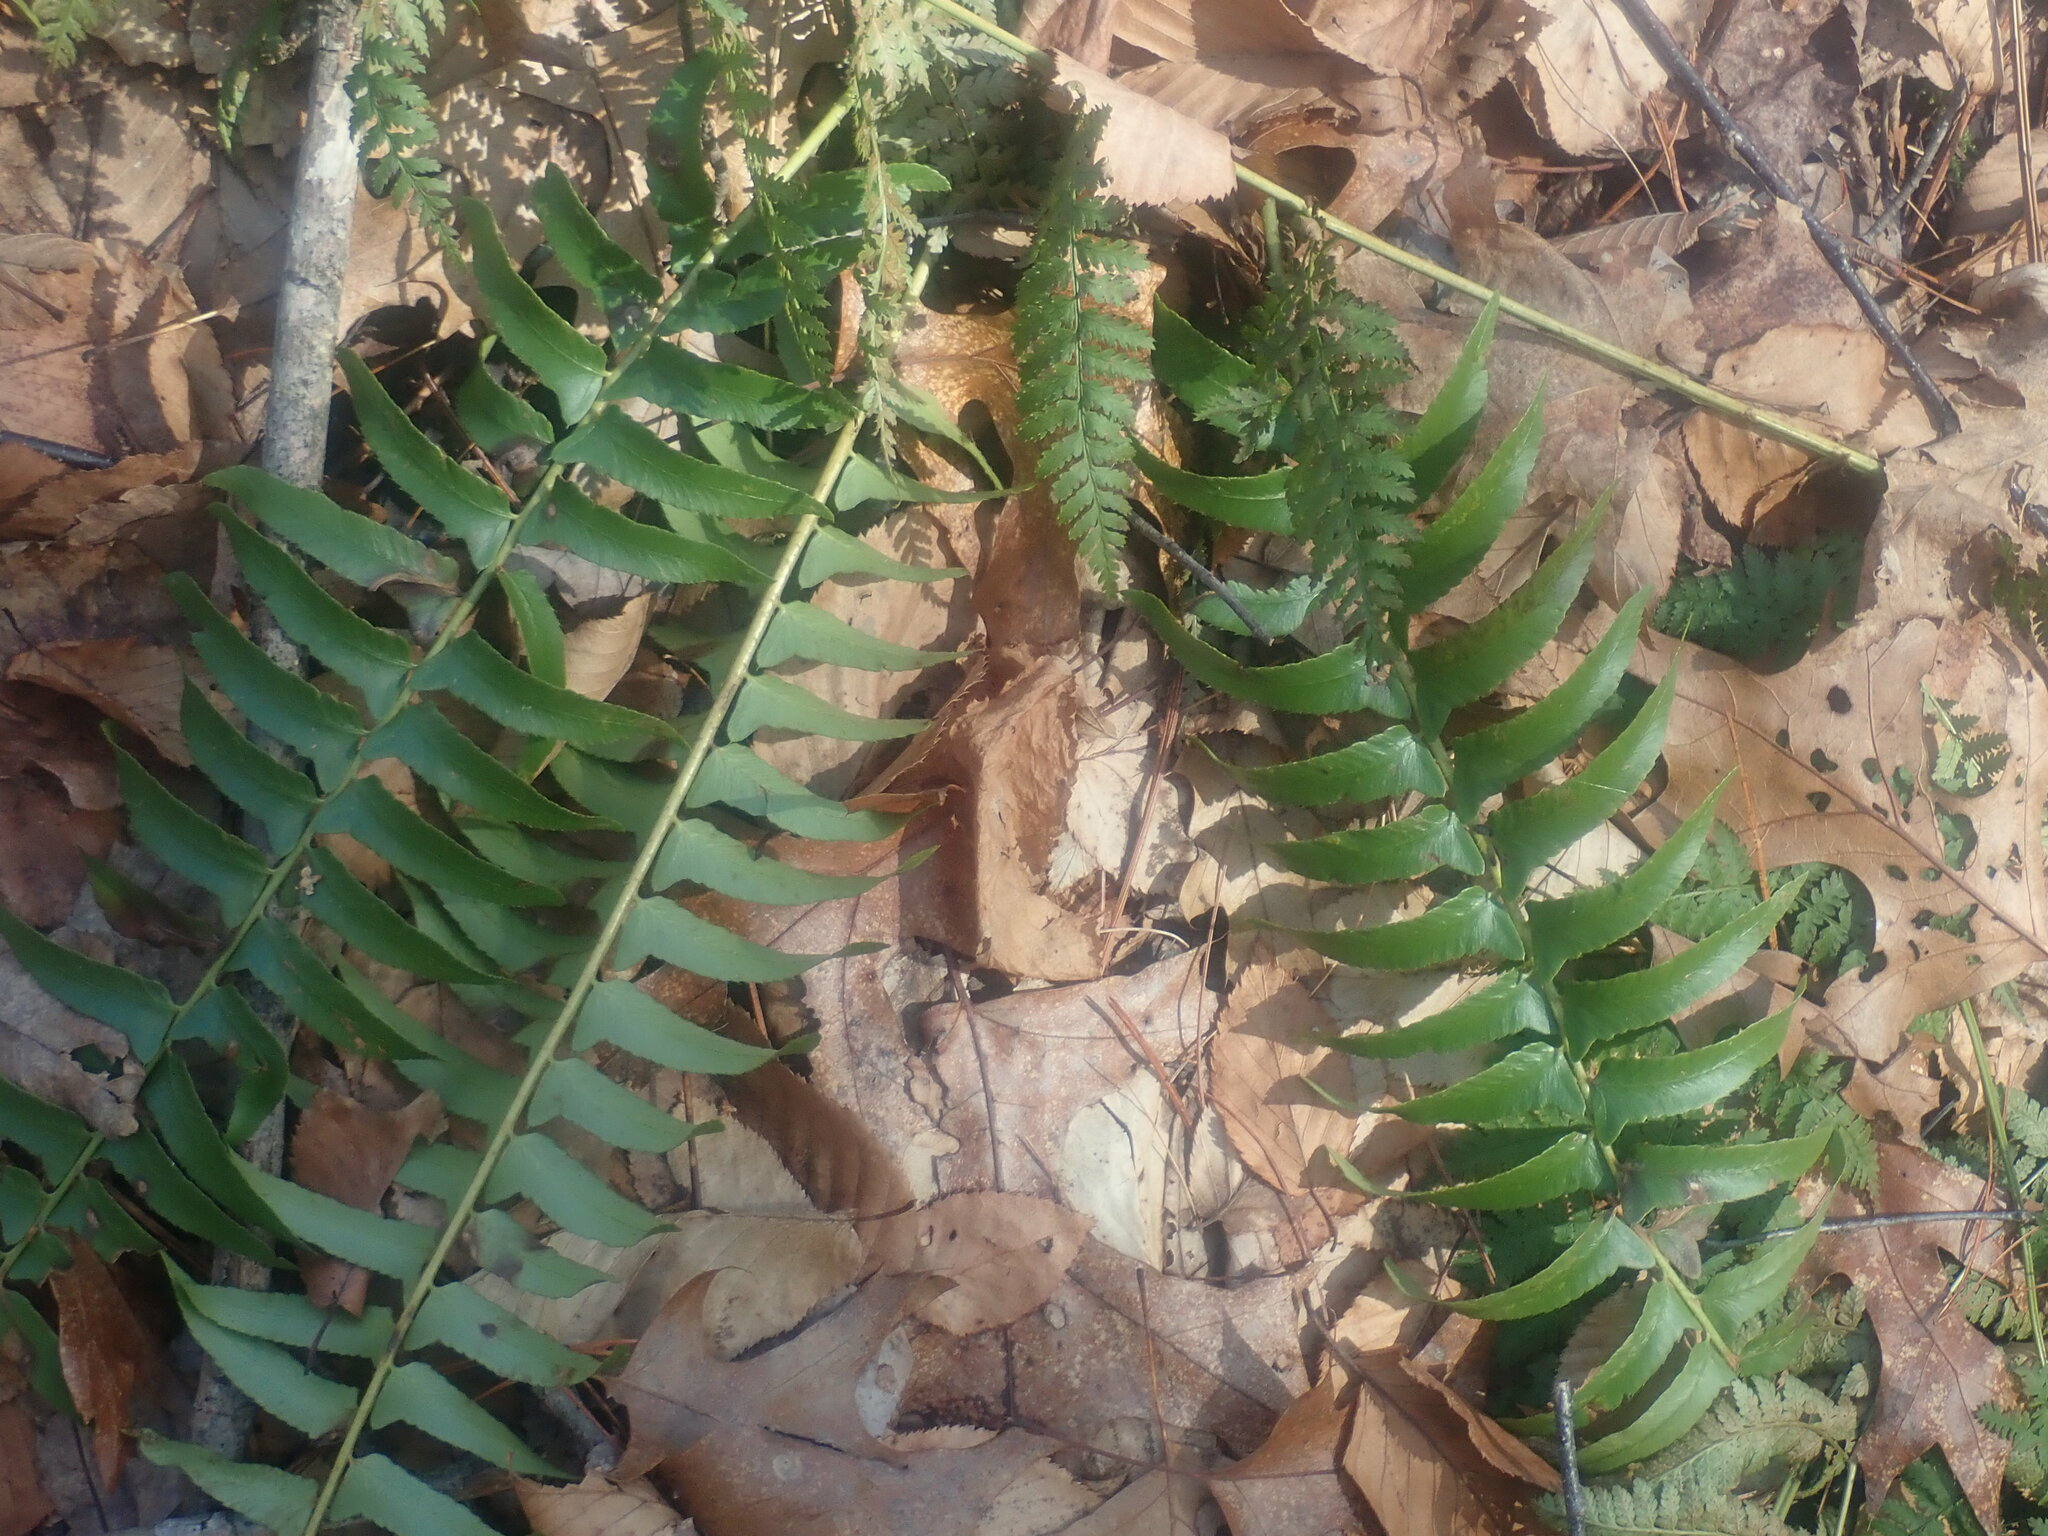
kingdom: Plantae
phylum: Tracheophyta
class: Polypodiopsida
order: Polypodiales
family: Dryopteridaceae
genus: Polystichum
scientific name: Polystichum acrostichoides
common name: Christmas fern
